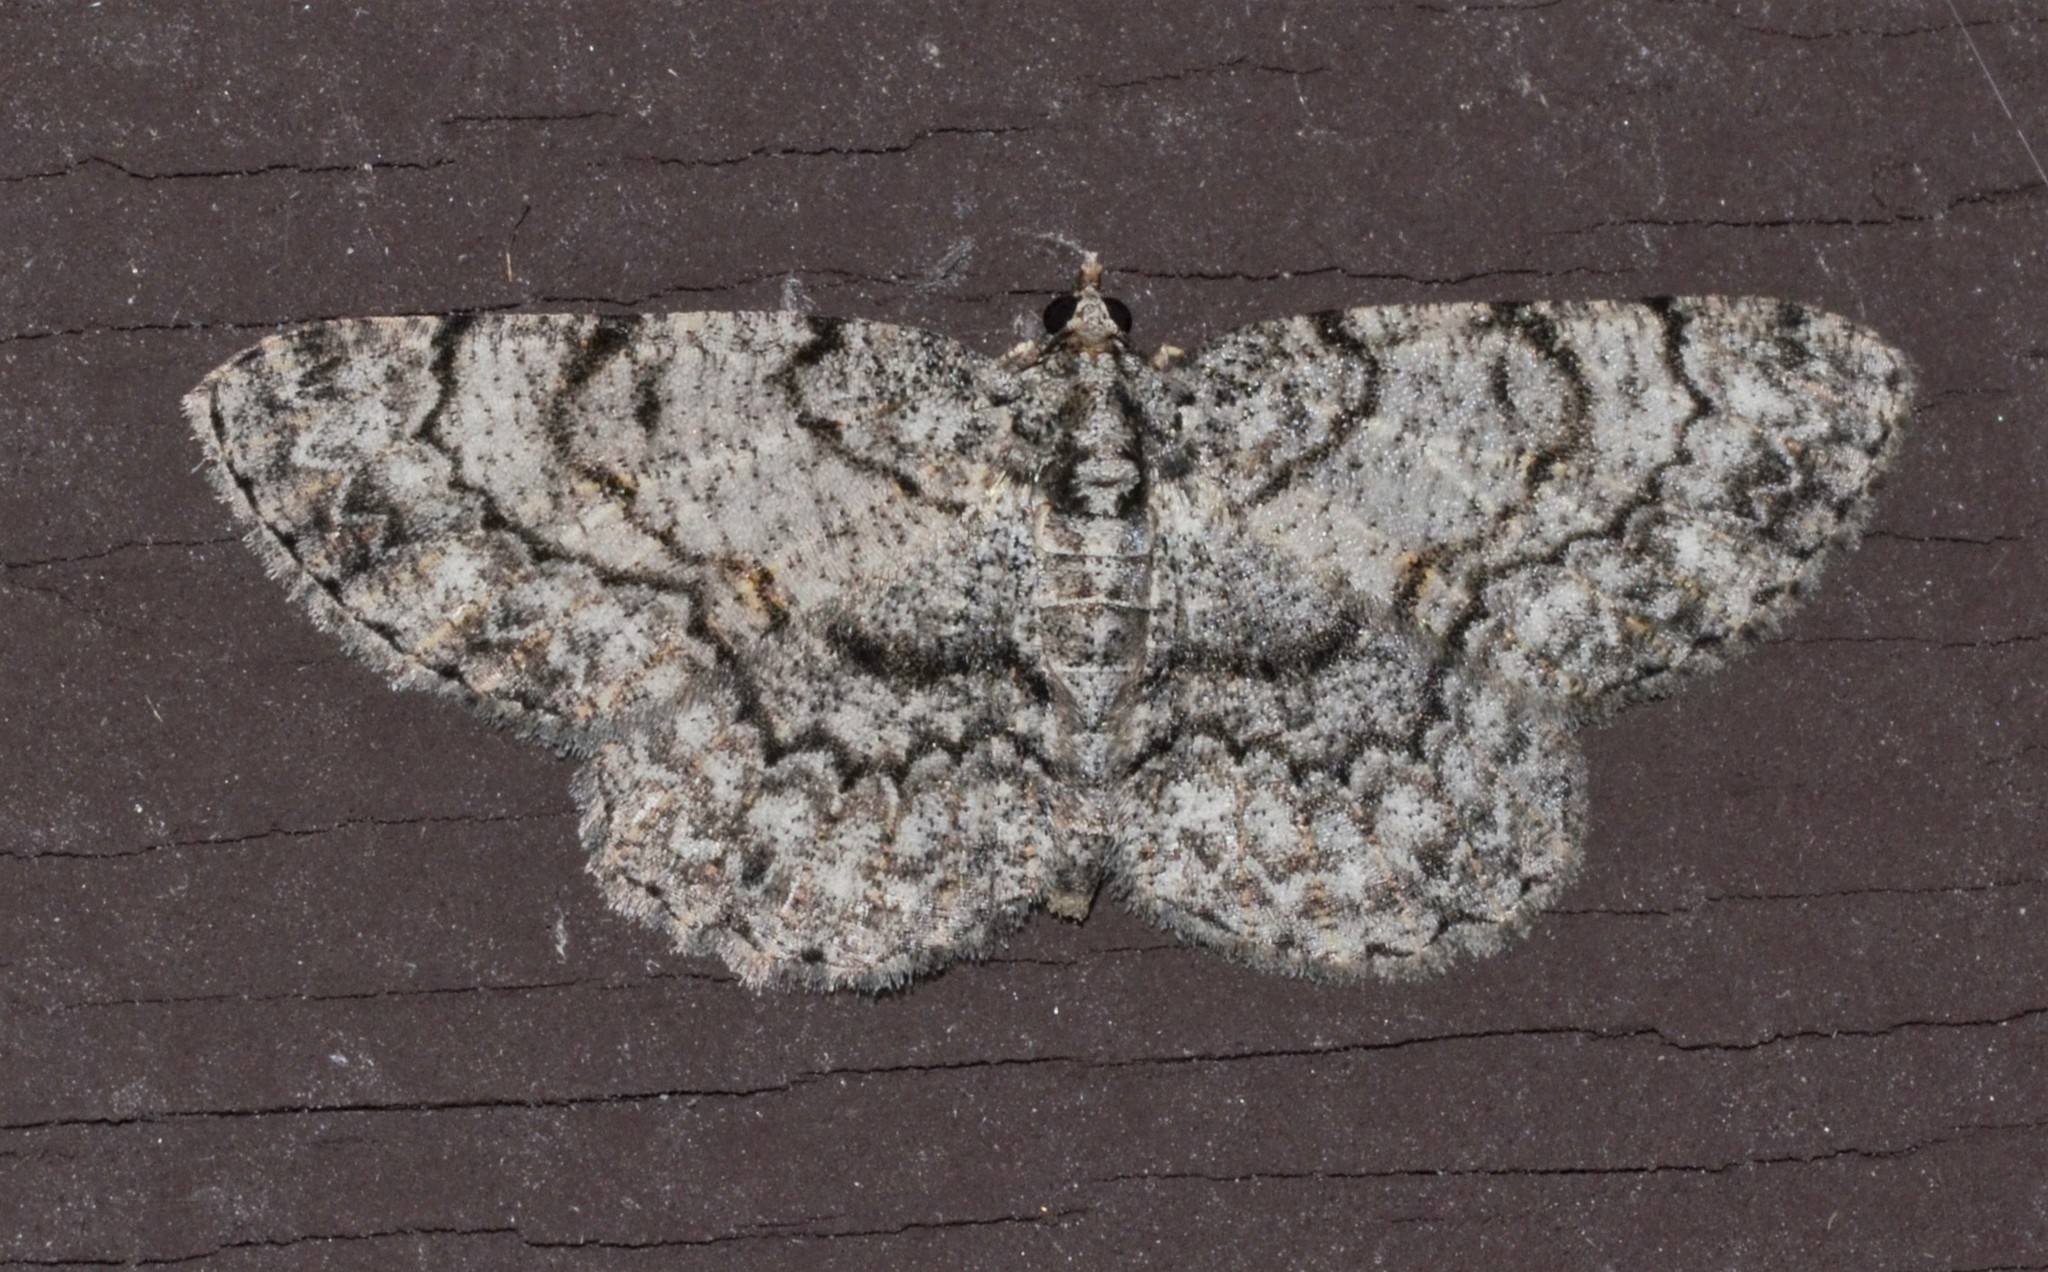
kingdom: Animalia
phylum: Arthropoda
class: Insecta
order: Lepidoptera
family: Geometridae
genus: Protoboarmia
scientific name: Protoboarmia porcelaria
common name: Porcelain gray
